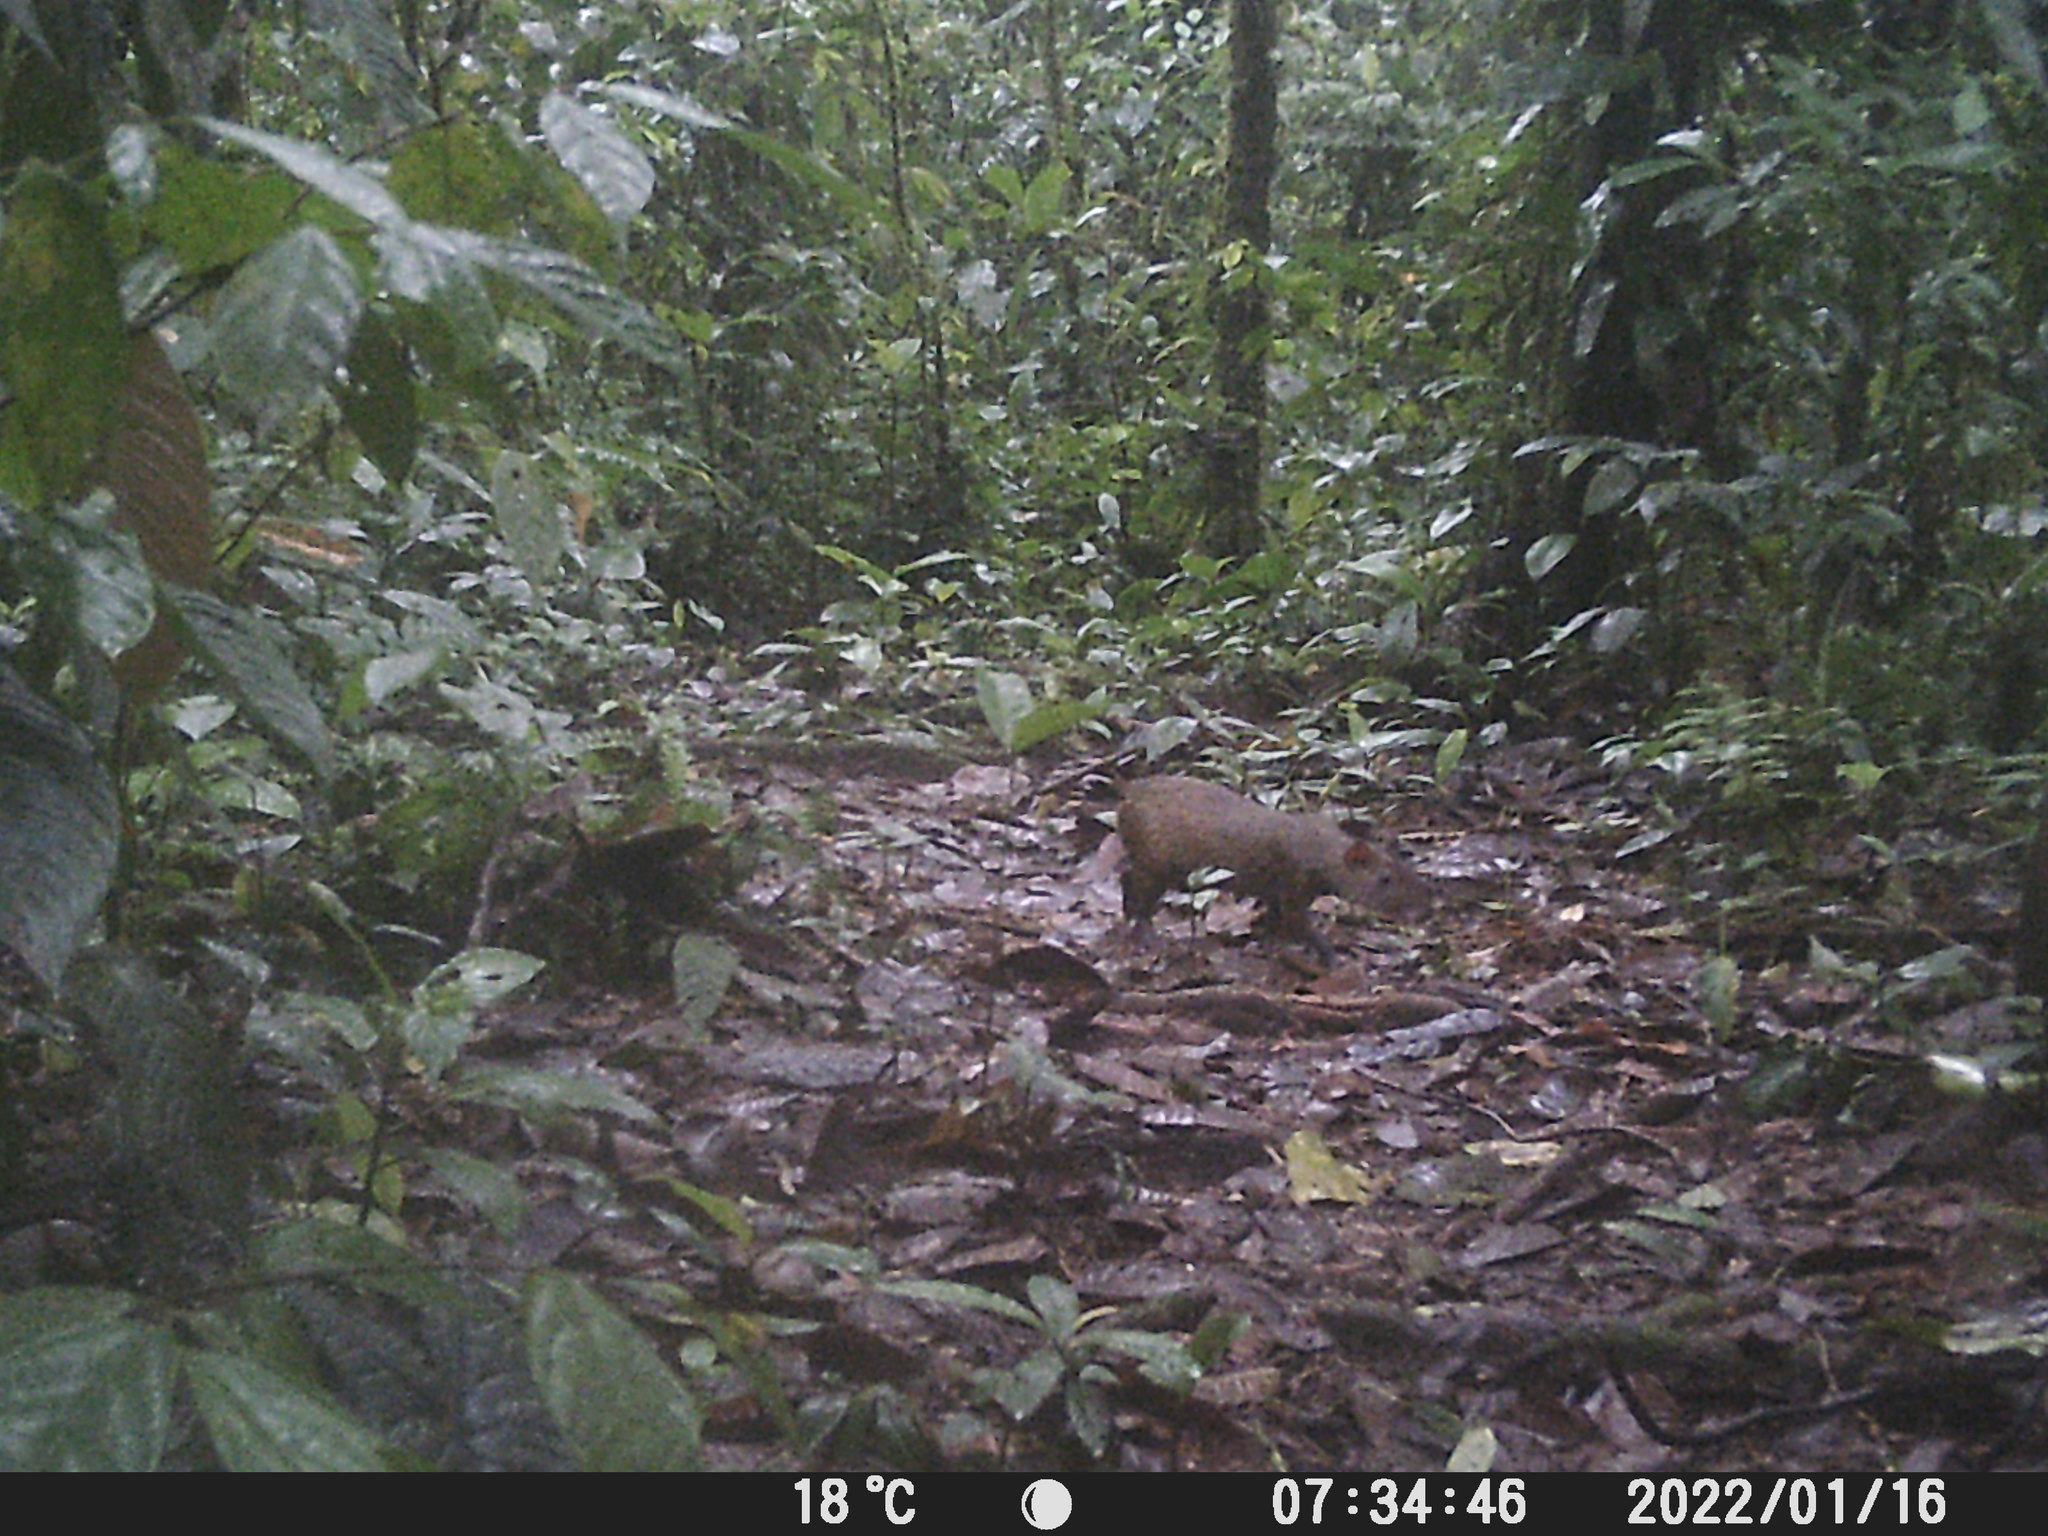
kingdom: Animalia
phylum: Chordata
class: Mammalia
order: Rodentia
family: Dasyproctidae
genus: Dasyprocta
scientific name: Dasyprocta punctata
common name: Central american agouti
